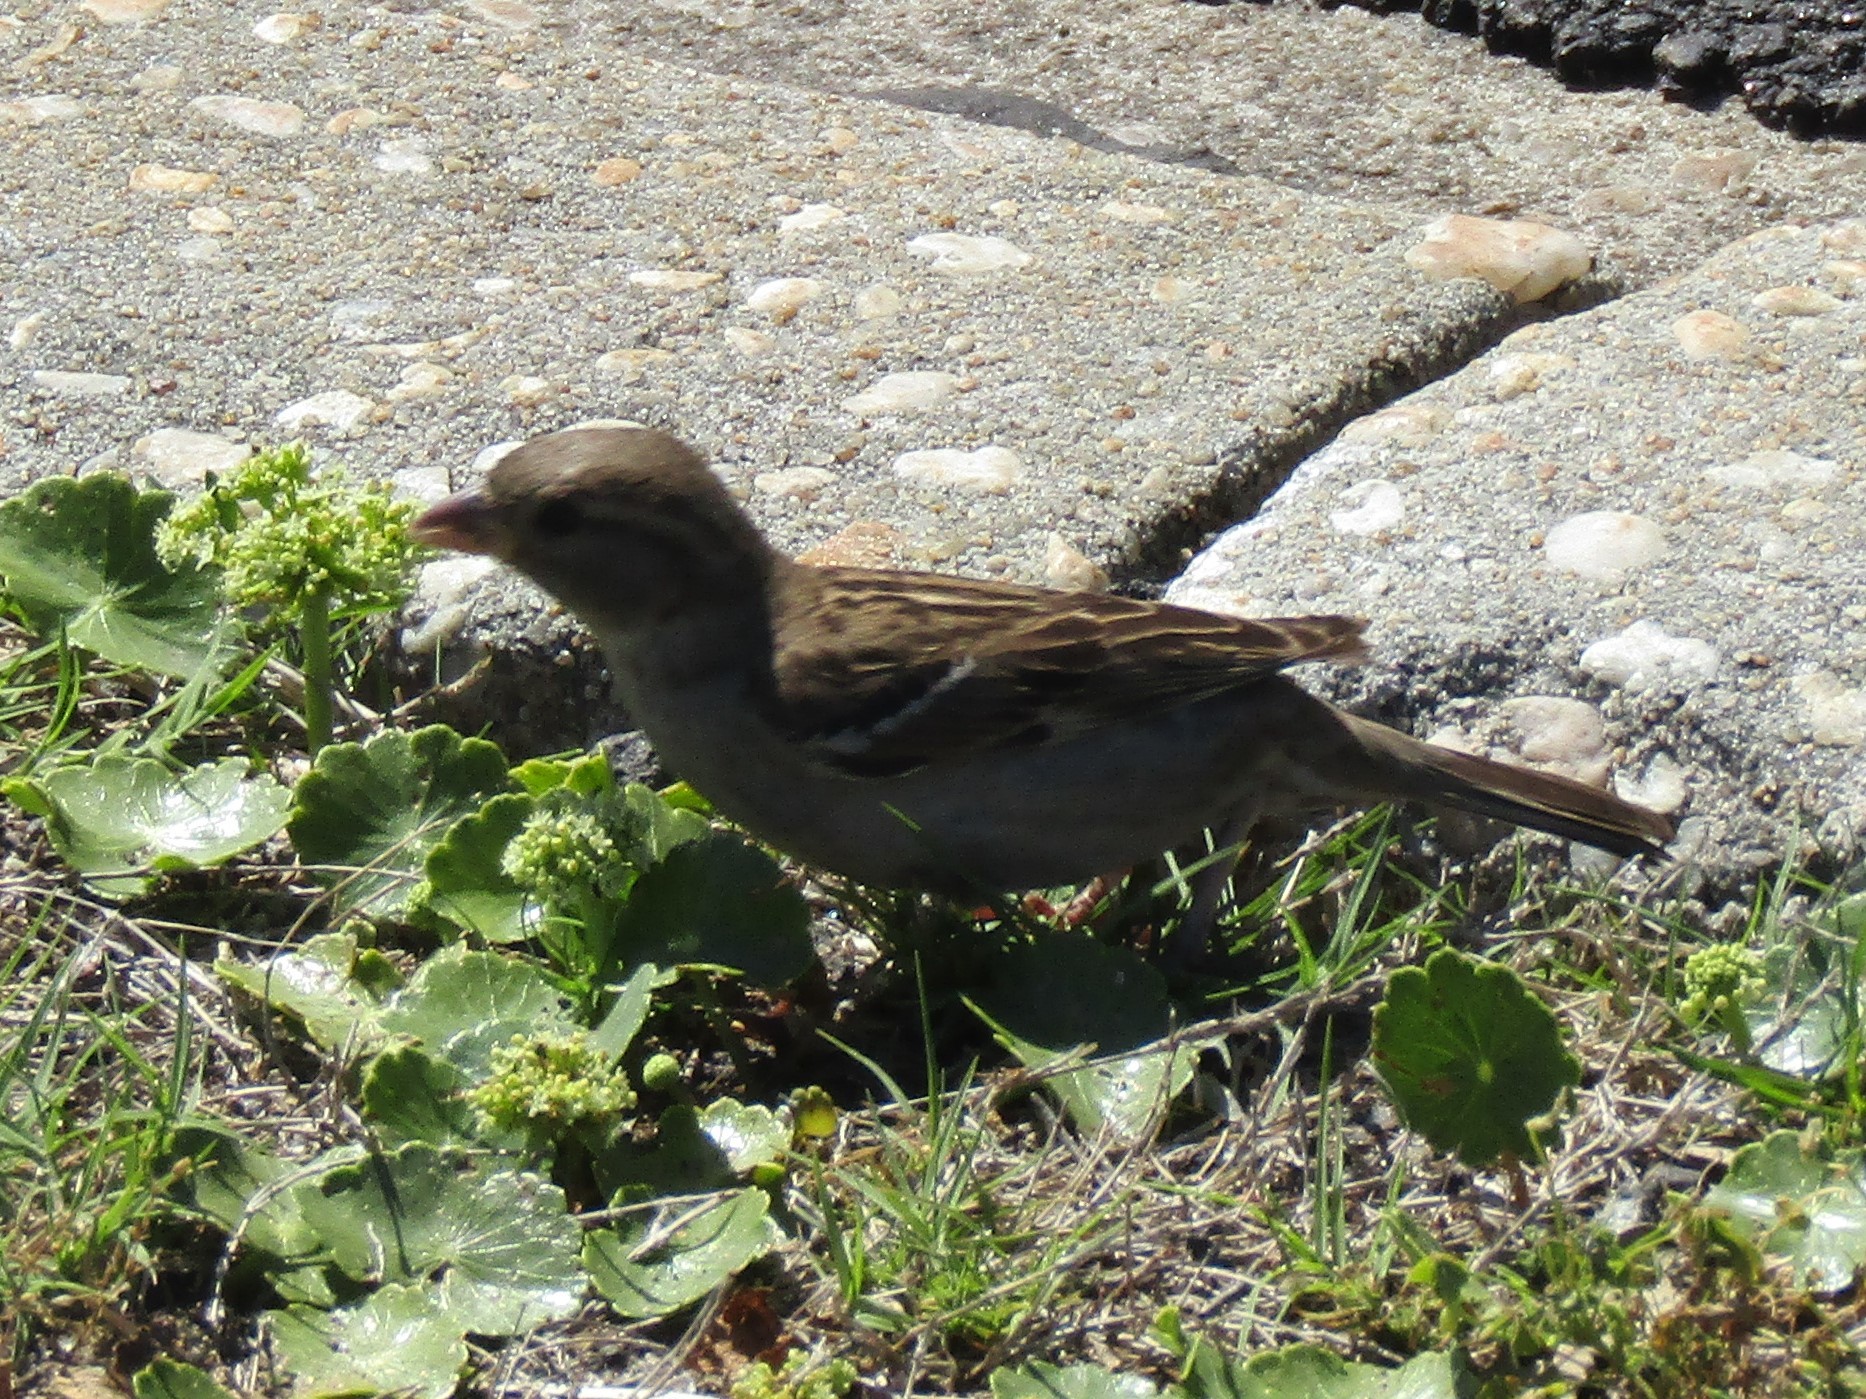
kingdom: Animalia
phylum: Chordata
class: Aves
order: Passeriformes
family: Passeridae
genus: Passer
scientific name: Passer domesticus
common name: House sparrow
